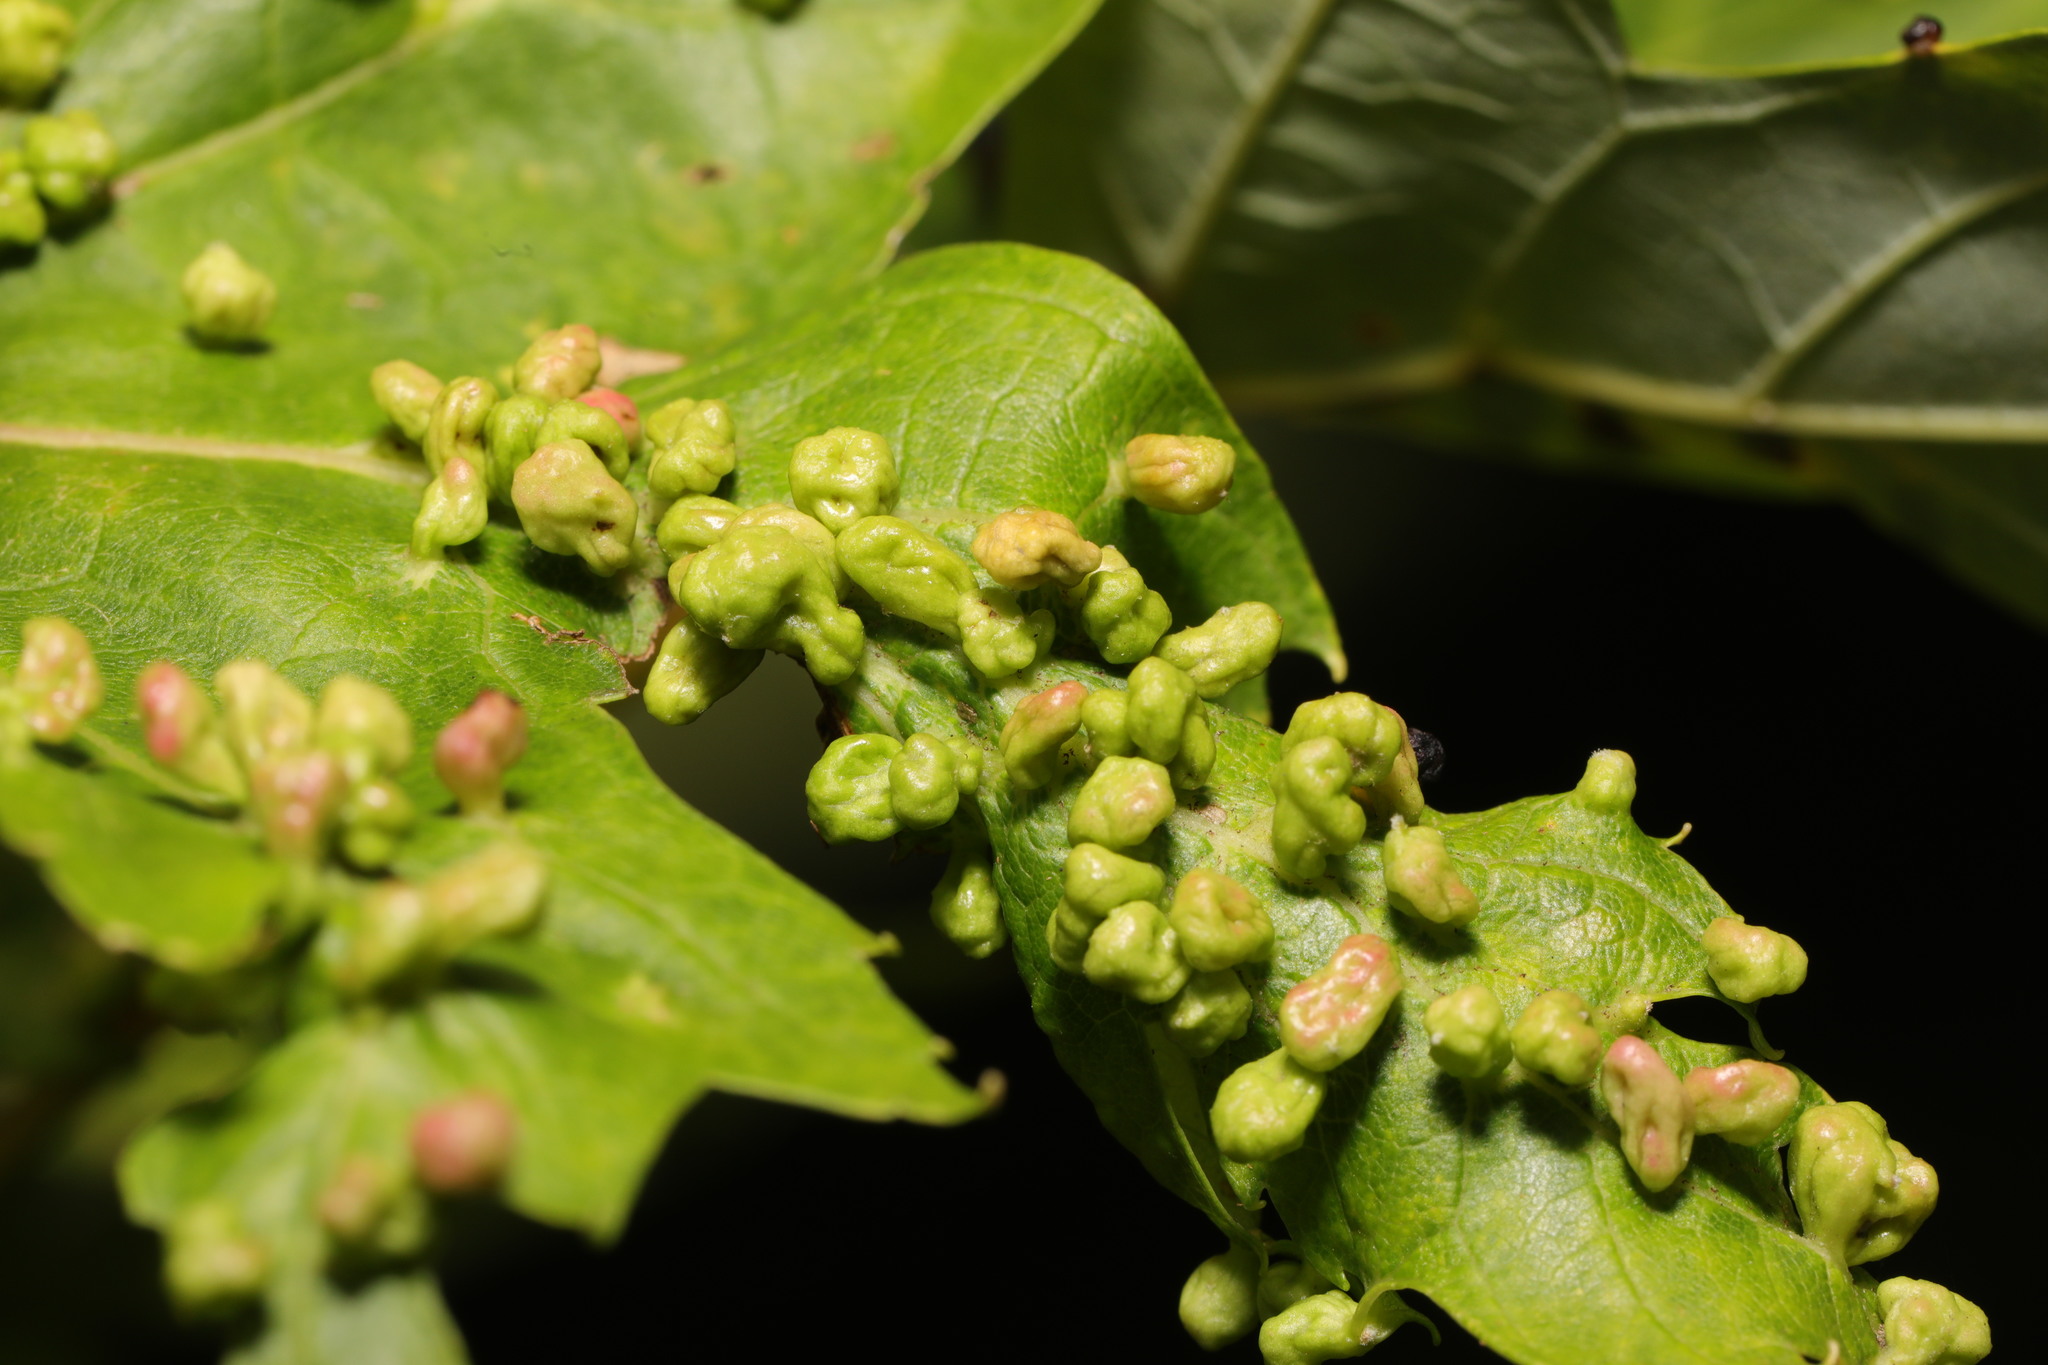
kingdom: Animalia
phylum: Arthropoda
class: Arachnida
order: Trombidiformes
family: Eriophyidae
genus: Vasates
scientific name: Vasates quadripedes
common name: Maple bladder gall mite
